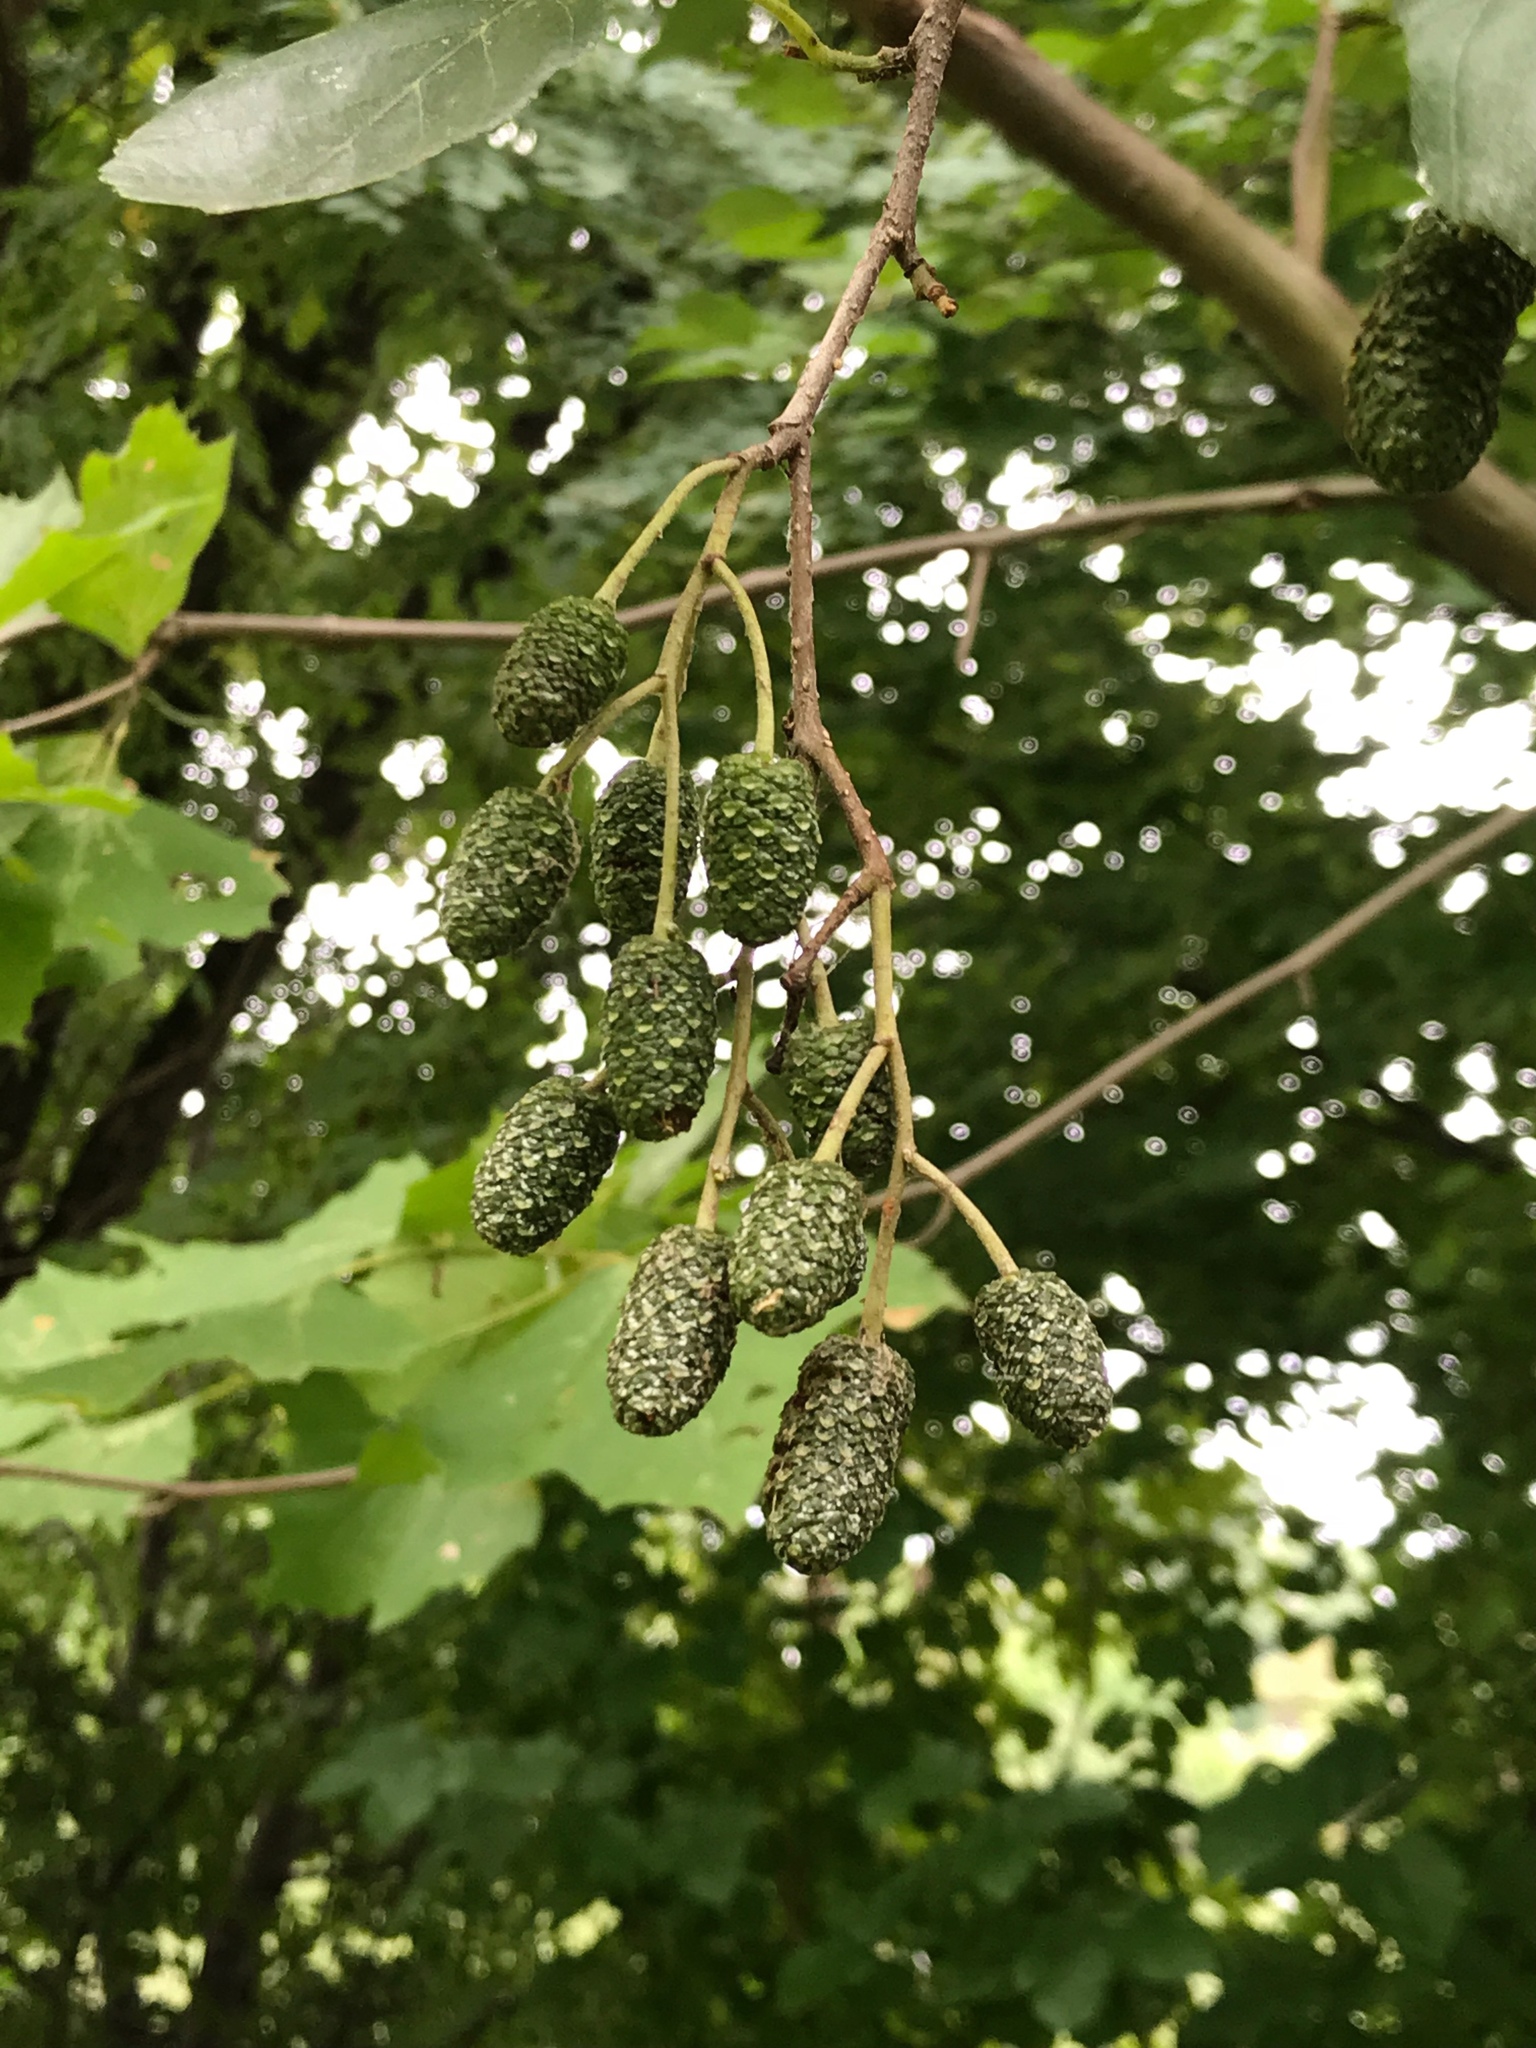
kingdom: Plantae
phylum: Tracheophyta
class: Magnoliopsida
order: Fagales
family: Betulaceae
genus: Alnus
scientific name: Alnus glutinosa
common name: Black alder
